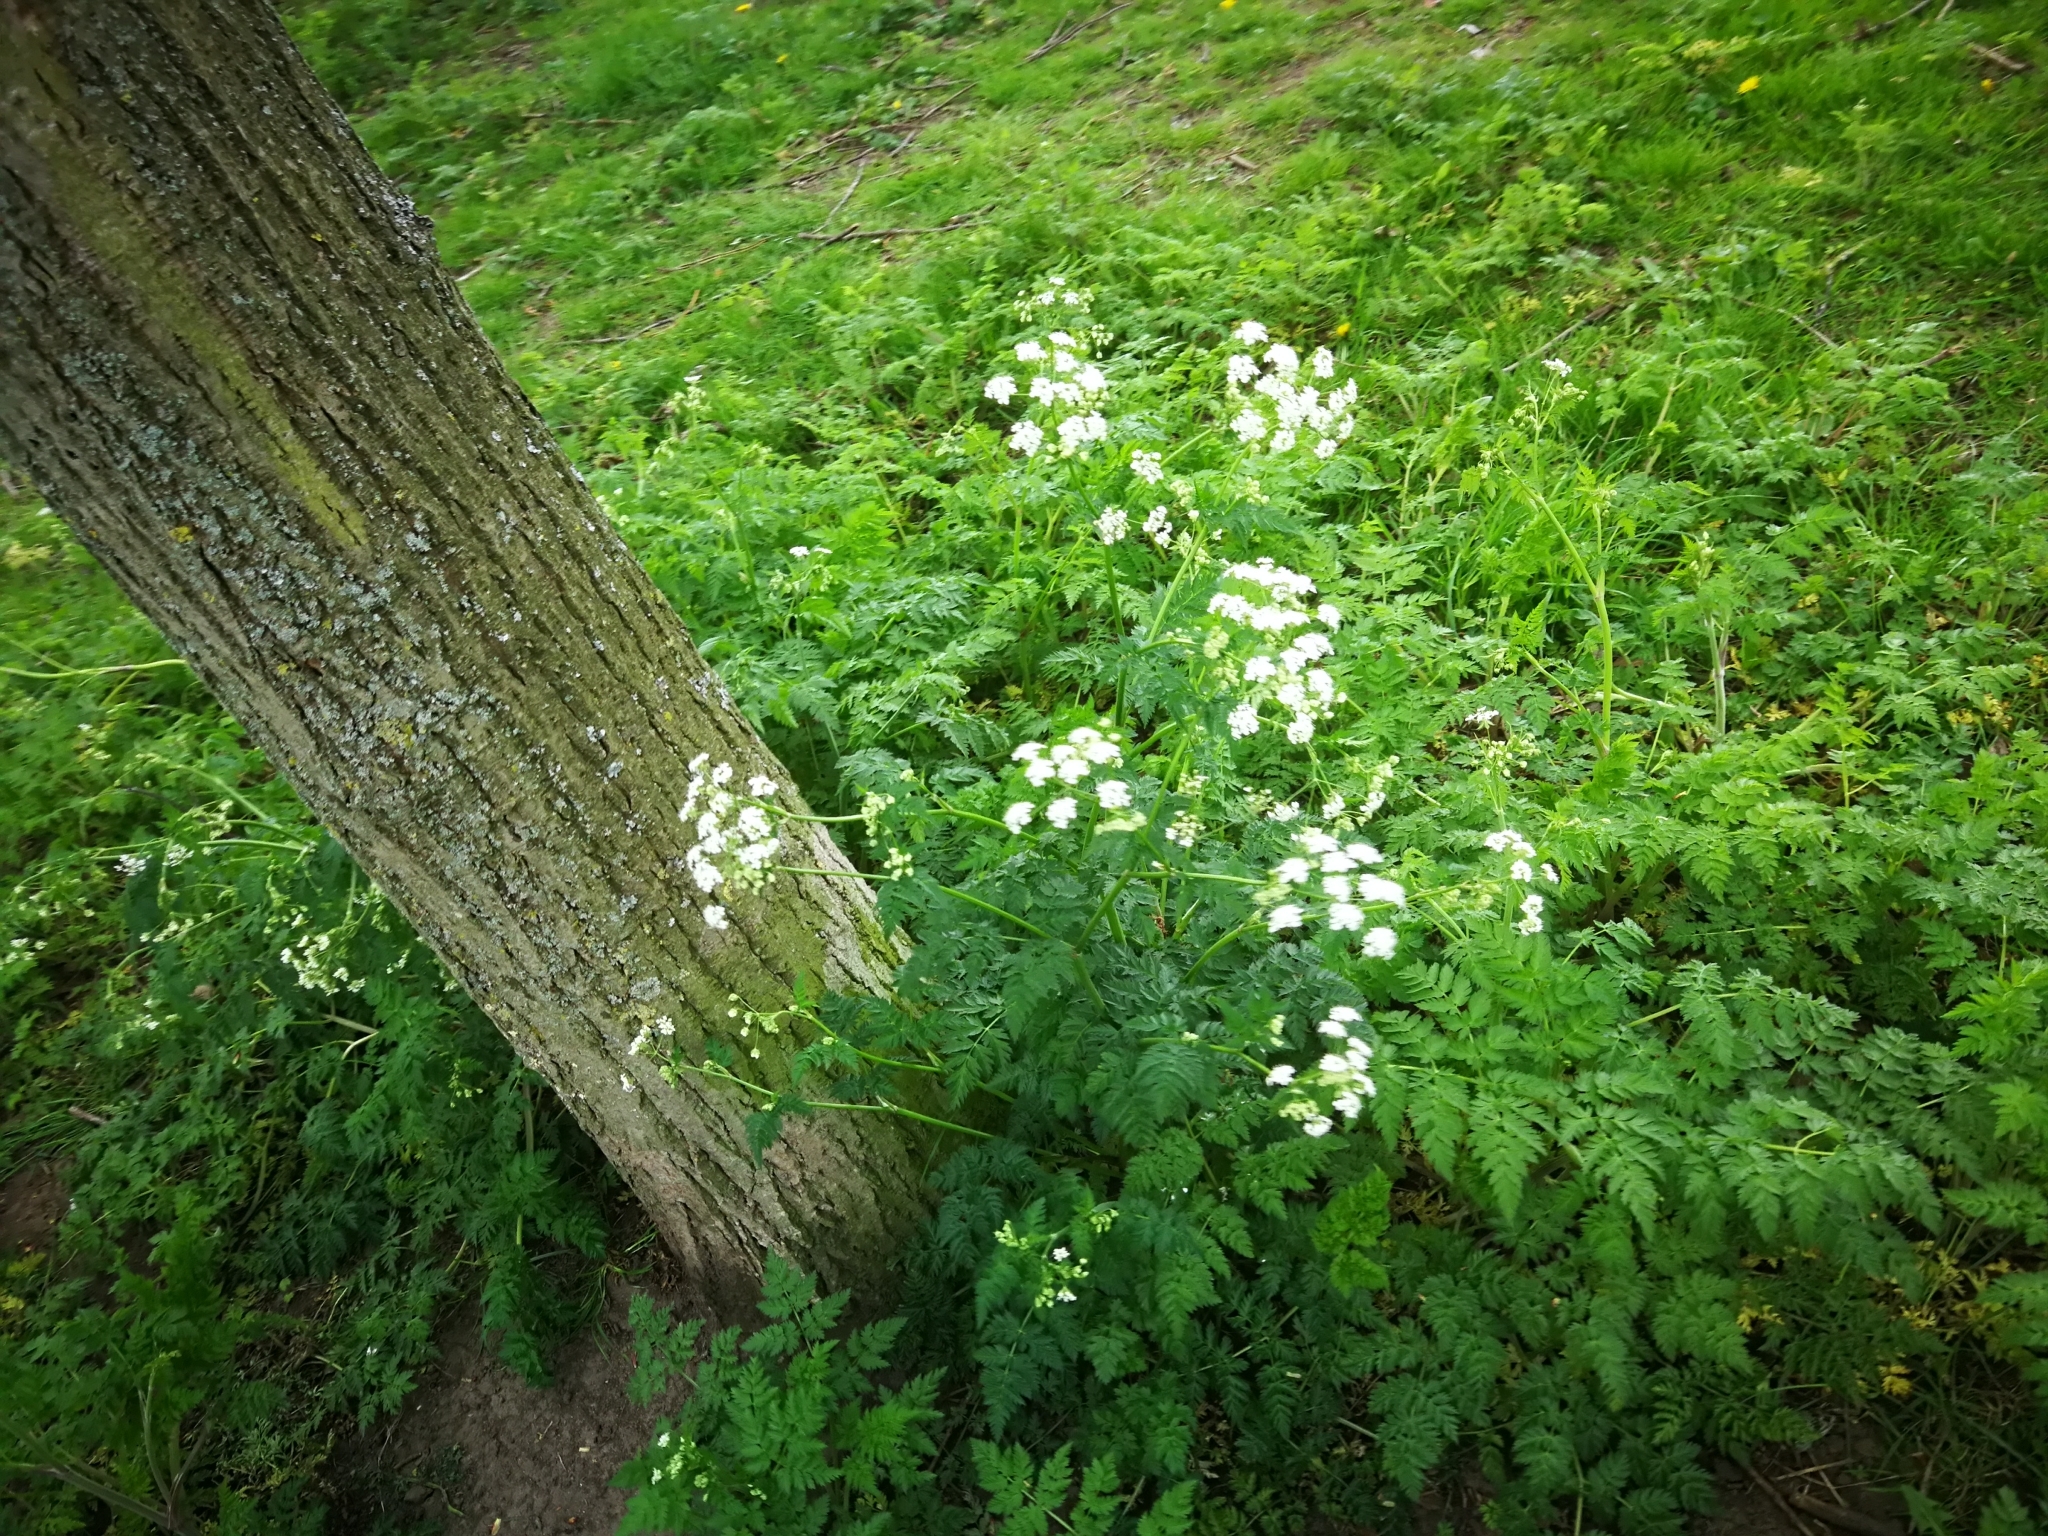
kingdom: Plantae
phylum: Tracheophyta
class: Magnoliopsida
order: Apiales
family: Apiaceae
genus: Anthriscus
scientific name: Anthriscus sylvestris
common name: Cow parsley
